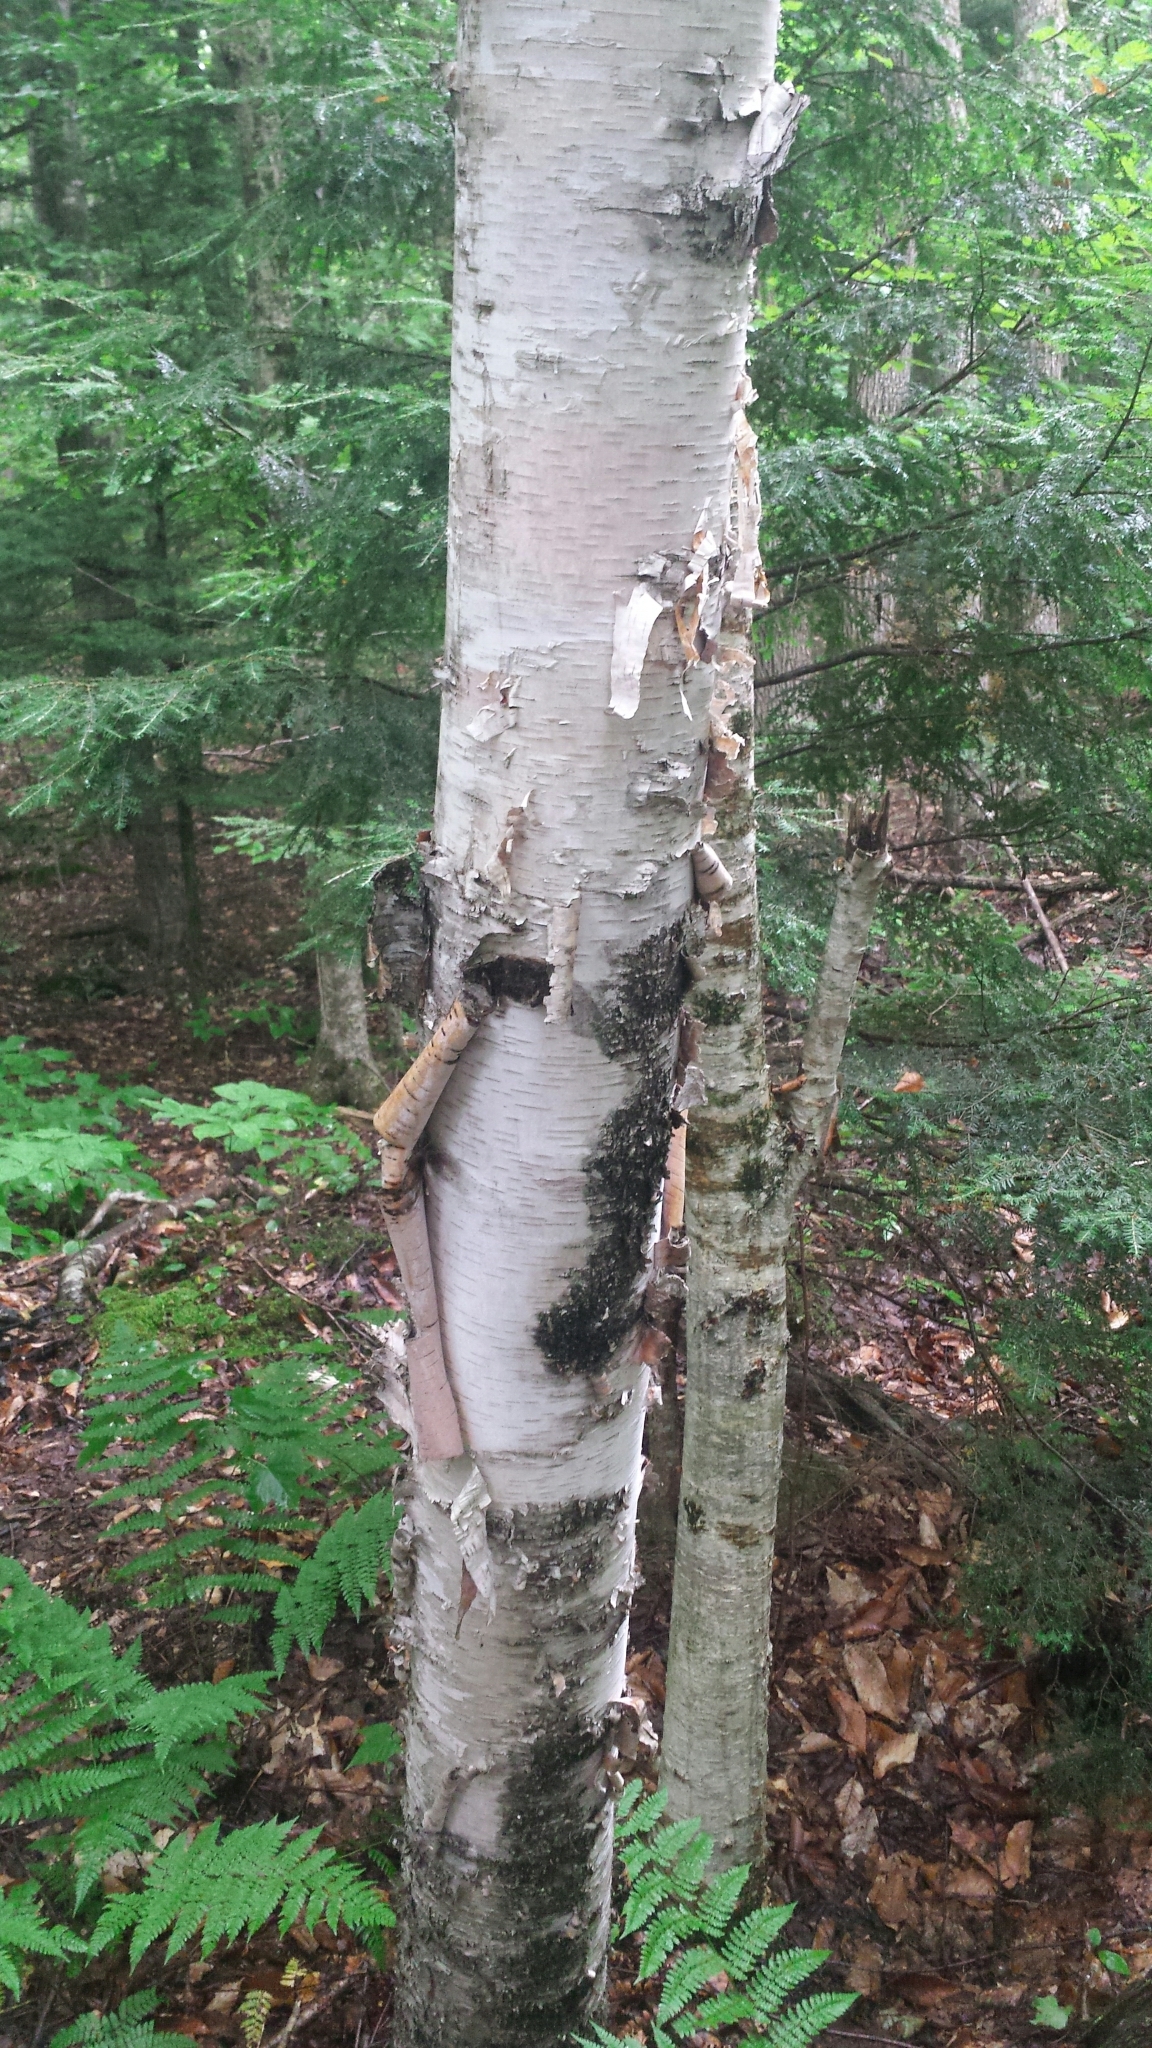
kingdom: Plantae
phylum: Tracheophyta
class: Magnoliopsida
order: Fagales
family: Betulaceae
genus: Betula
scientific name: Betula papyrifera
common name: Paper birch
